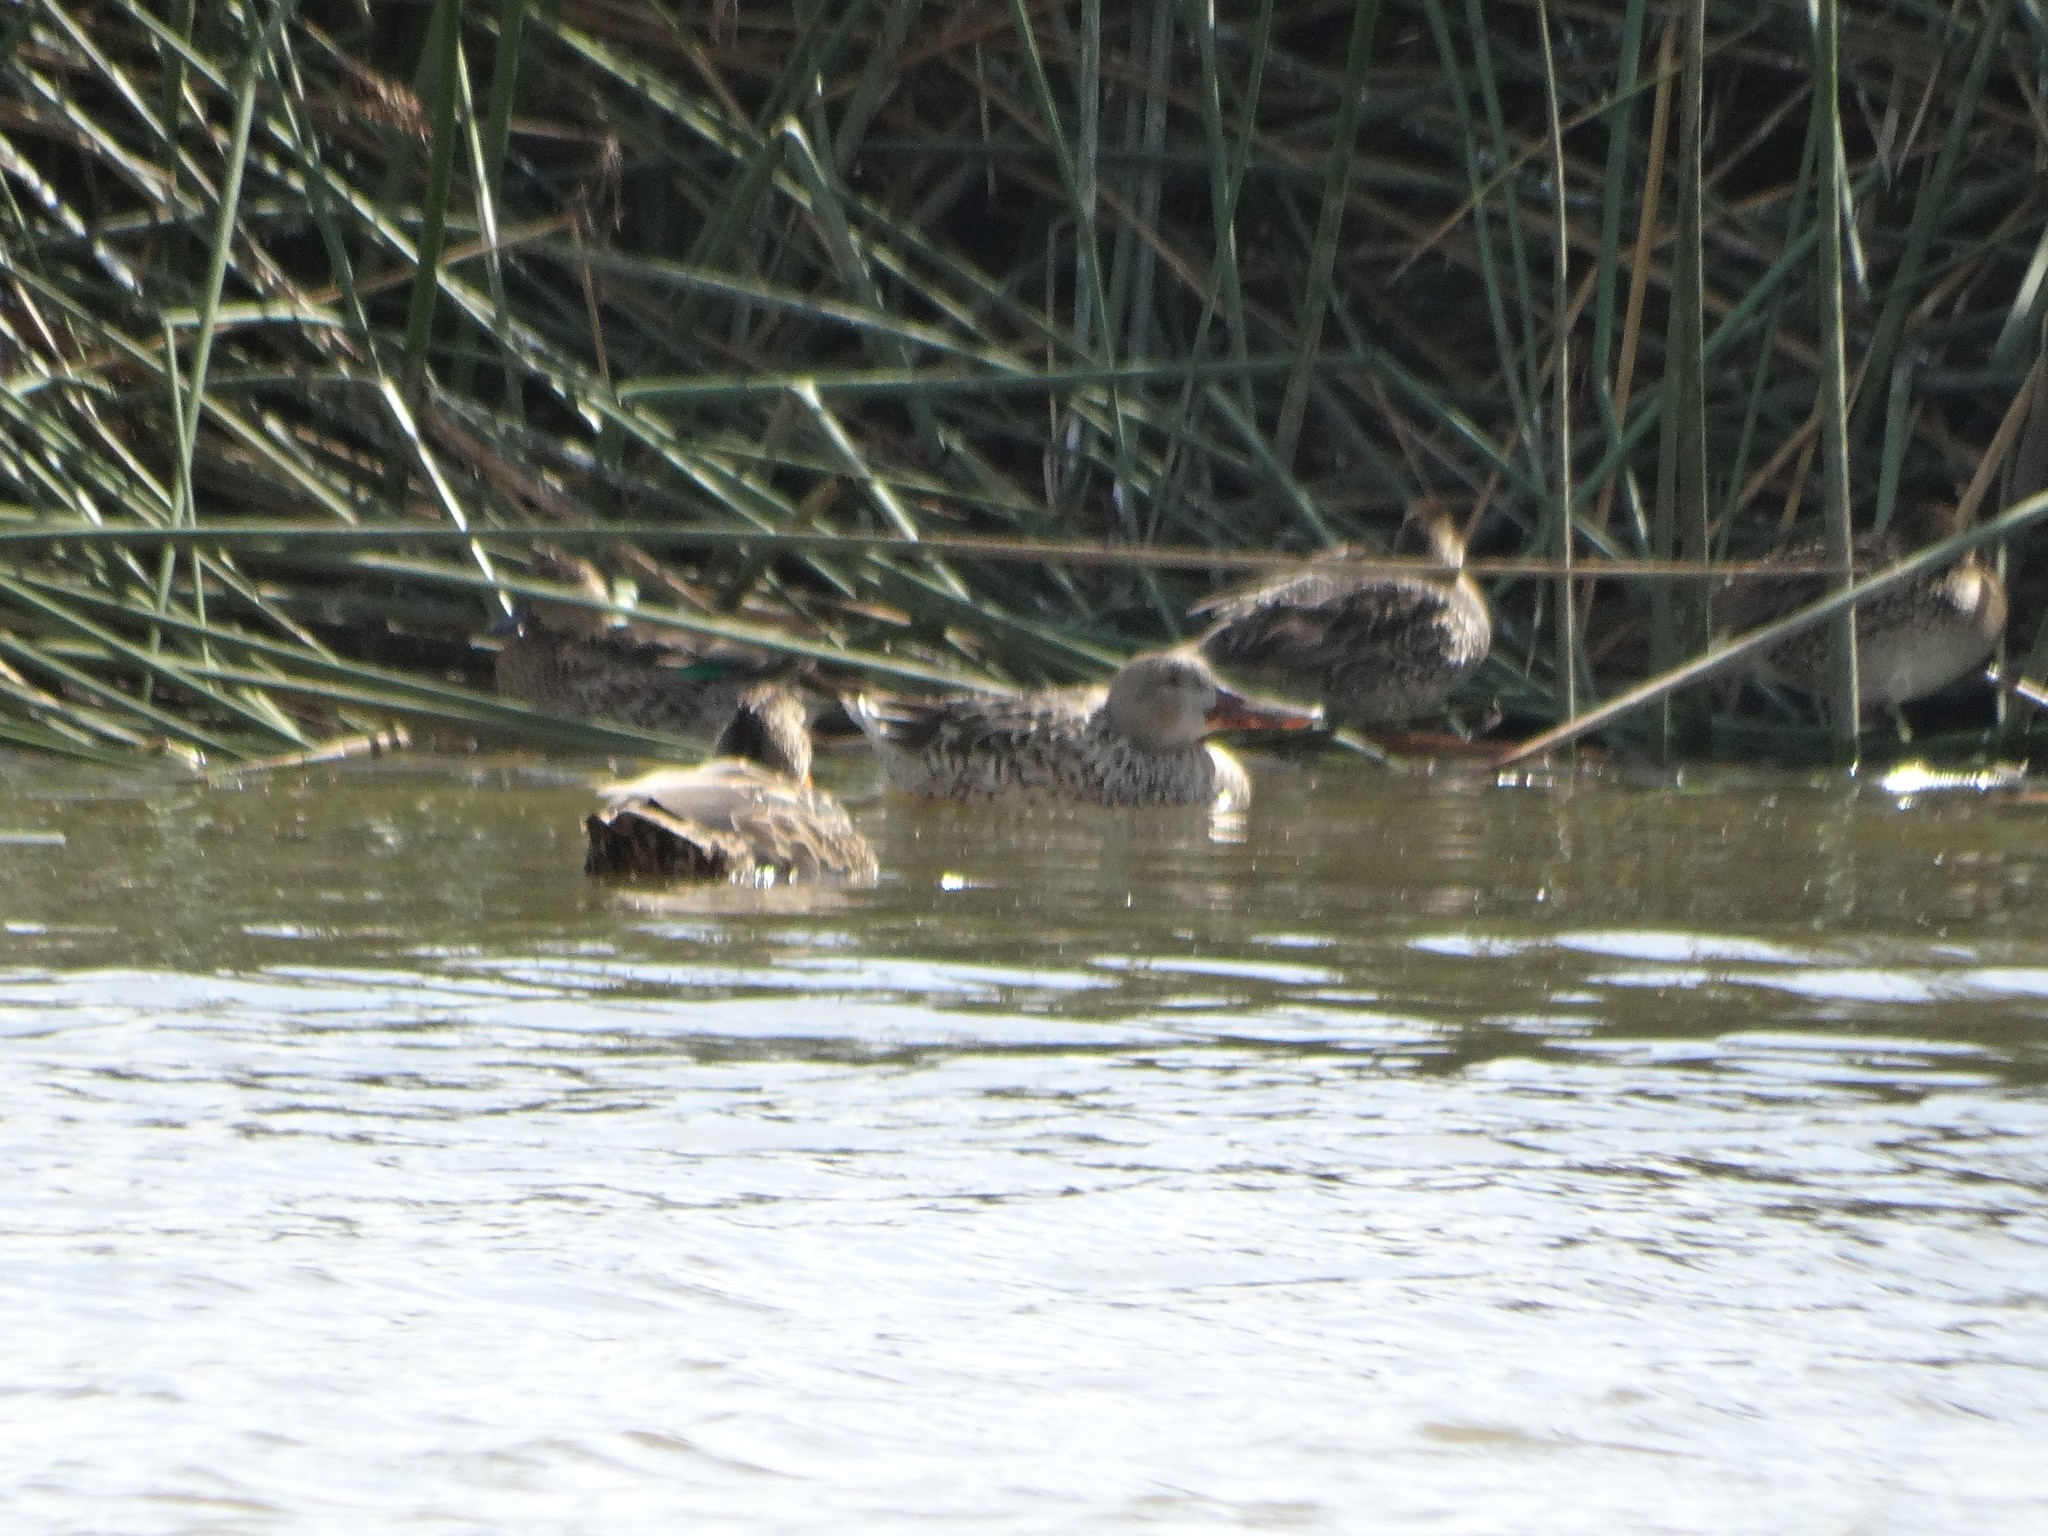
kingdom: Animalia
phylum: Chordata
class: Aves
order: Anseriformes
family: Anatidae
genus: Spatula
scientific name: Spatula clypeata
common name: Northern shoveler
